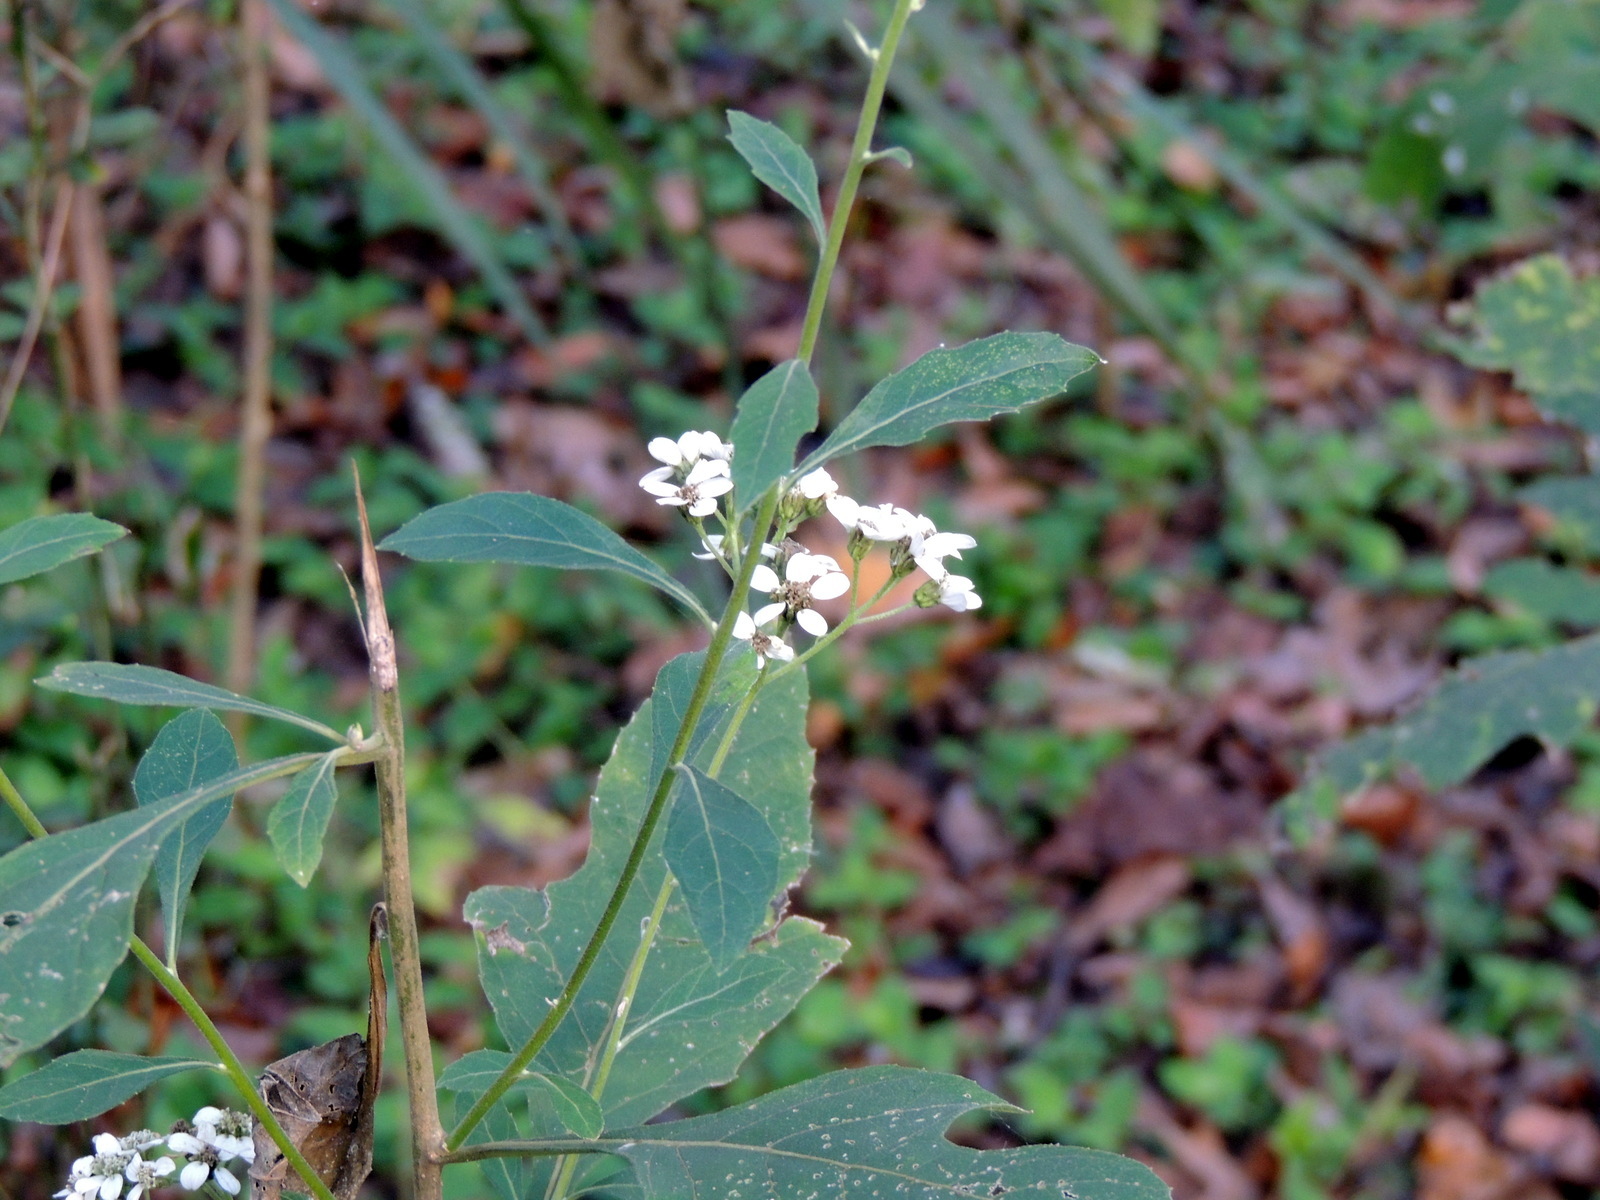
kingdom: Plantae
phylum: Tracheophyta
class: Magnoliopsida
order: Asterales
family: Asteraceae
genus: Verbesina
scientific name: Verbesina virginica
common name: Frostweed
